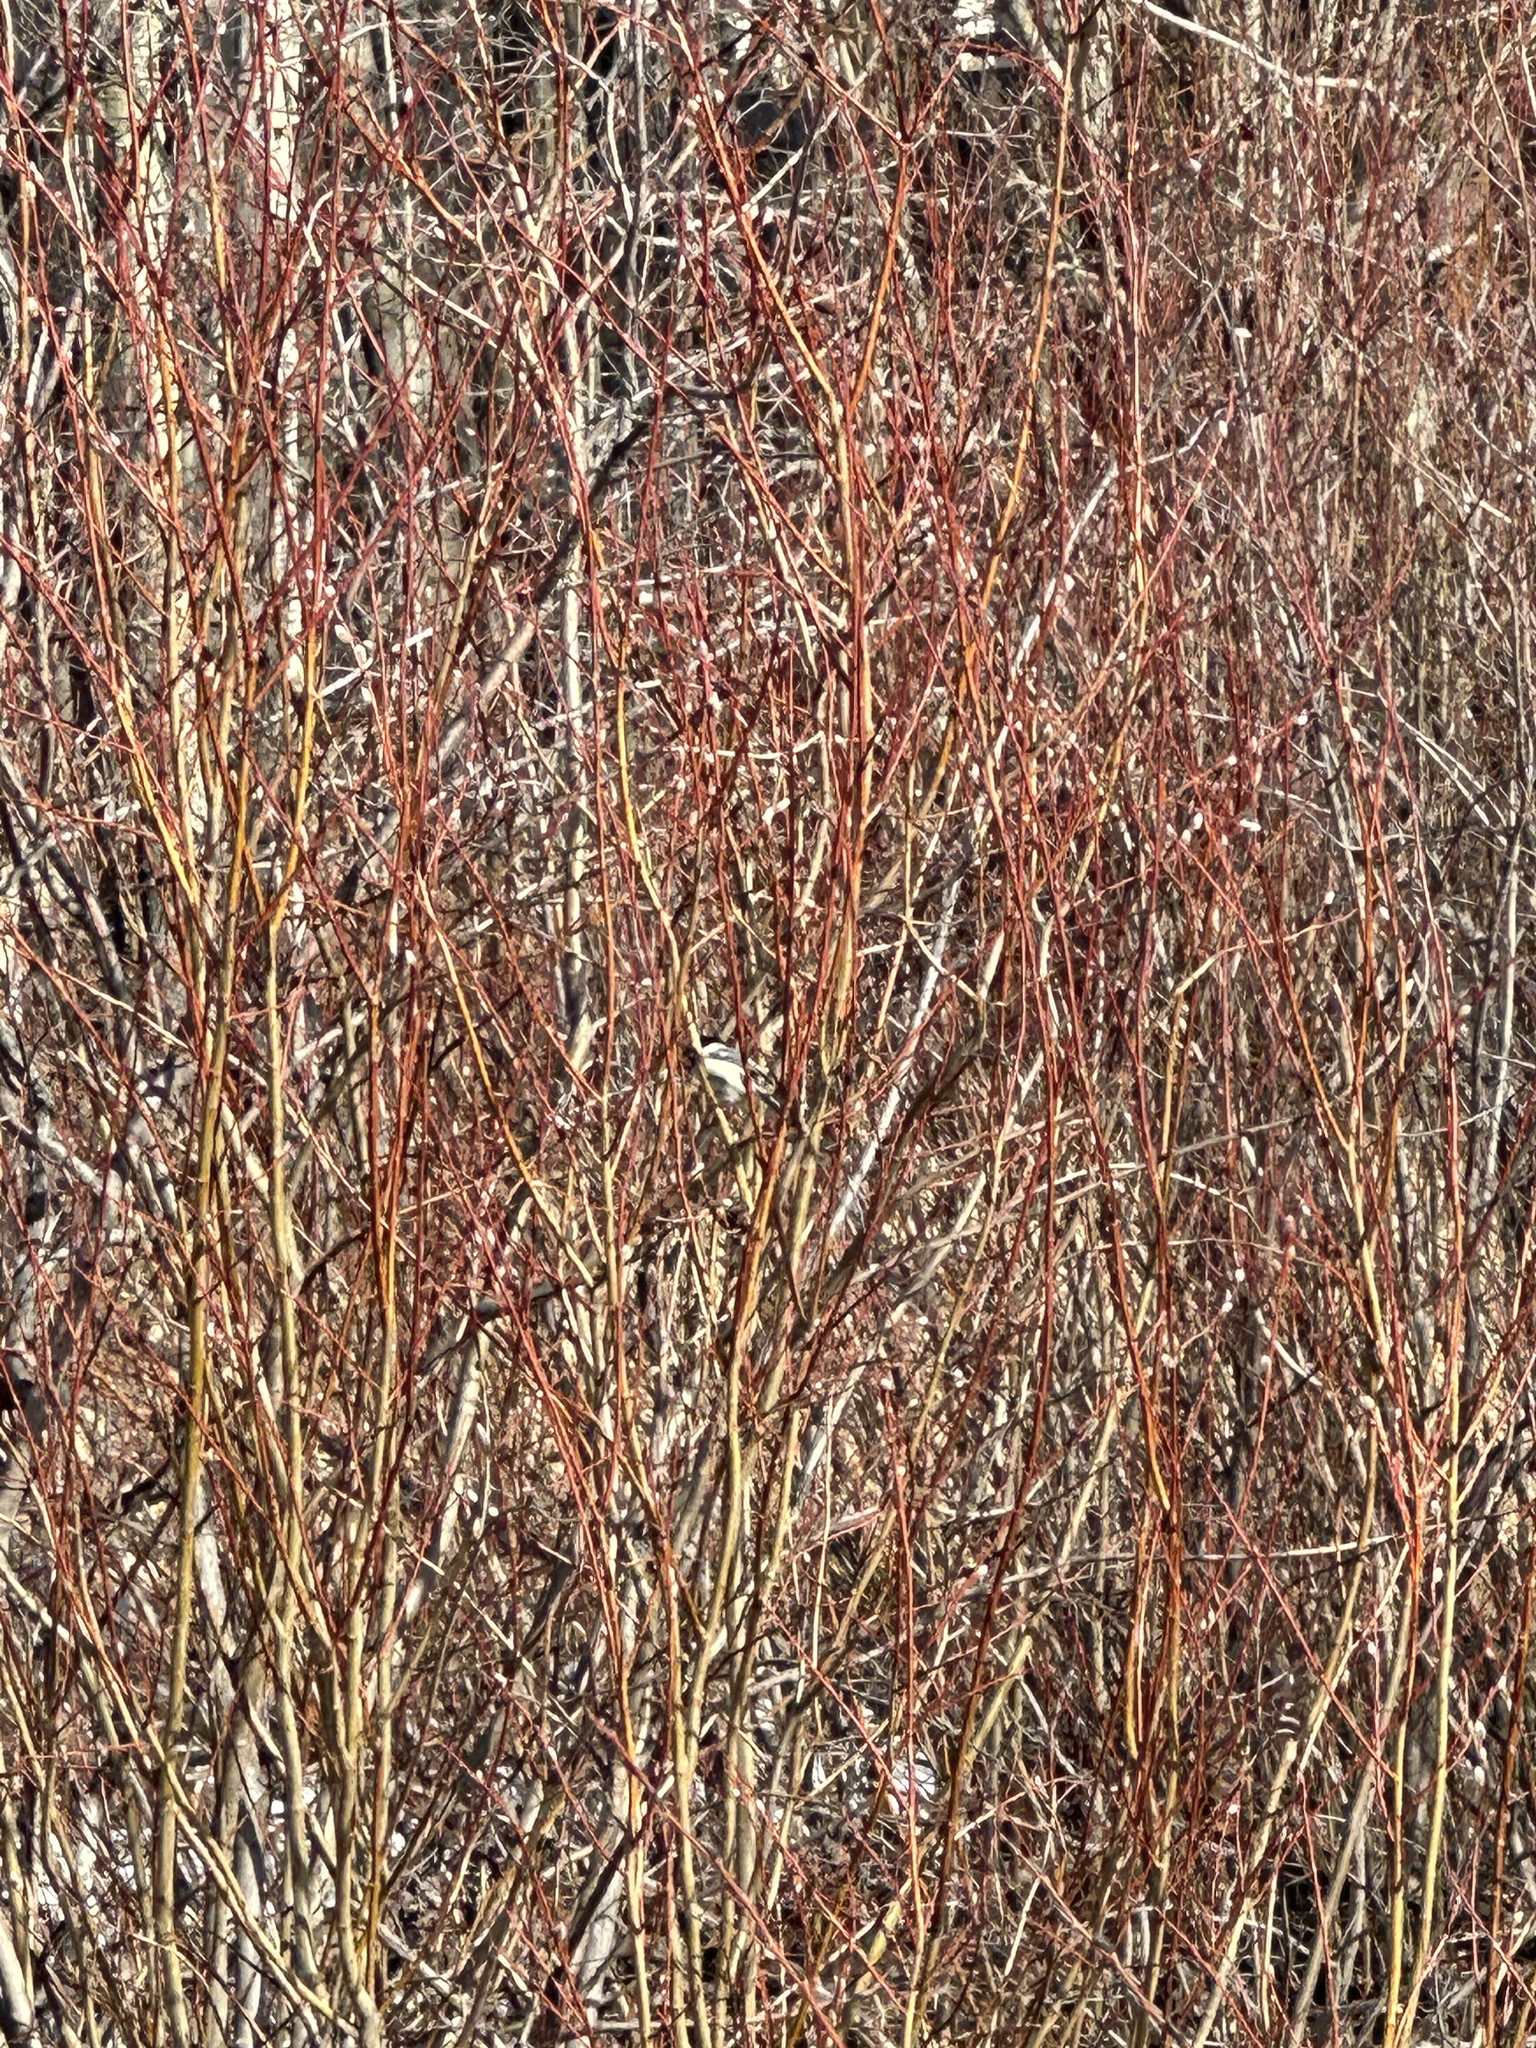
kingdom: Animalia
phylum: Chordata
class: Aves
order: Passeriformes
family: Paridae
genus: Poecile
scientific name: Poecile atricapillus
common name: Black-capped chickadee
